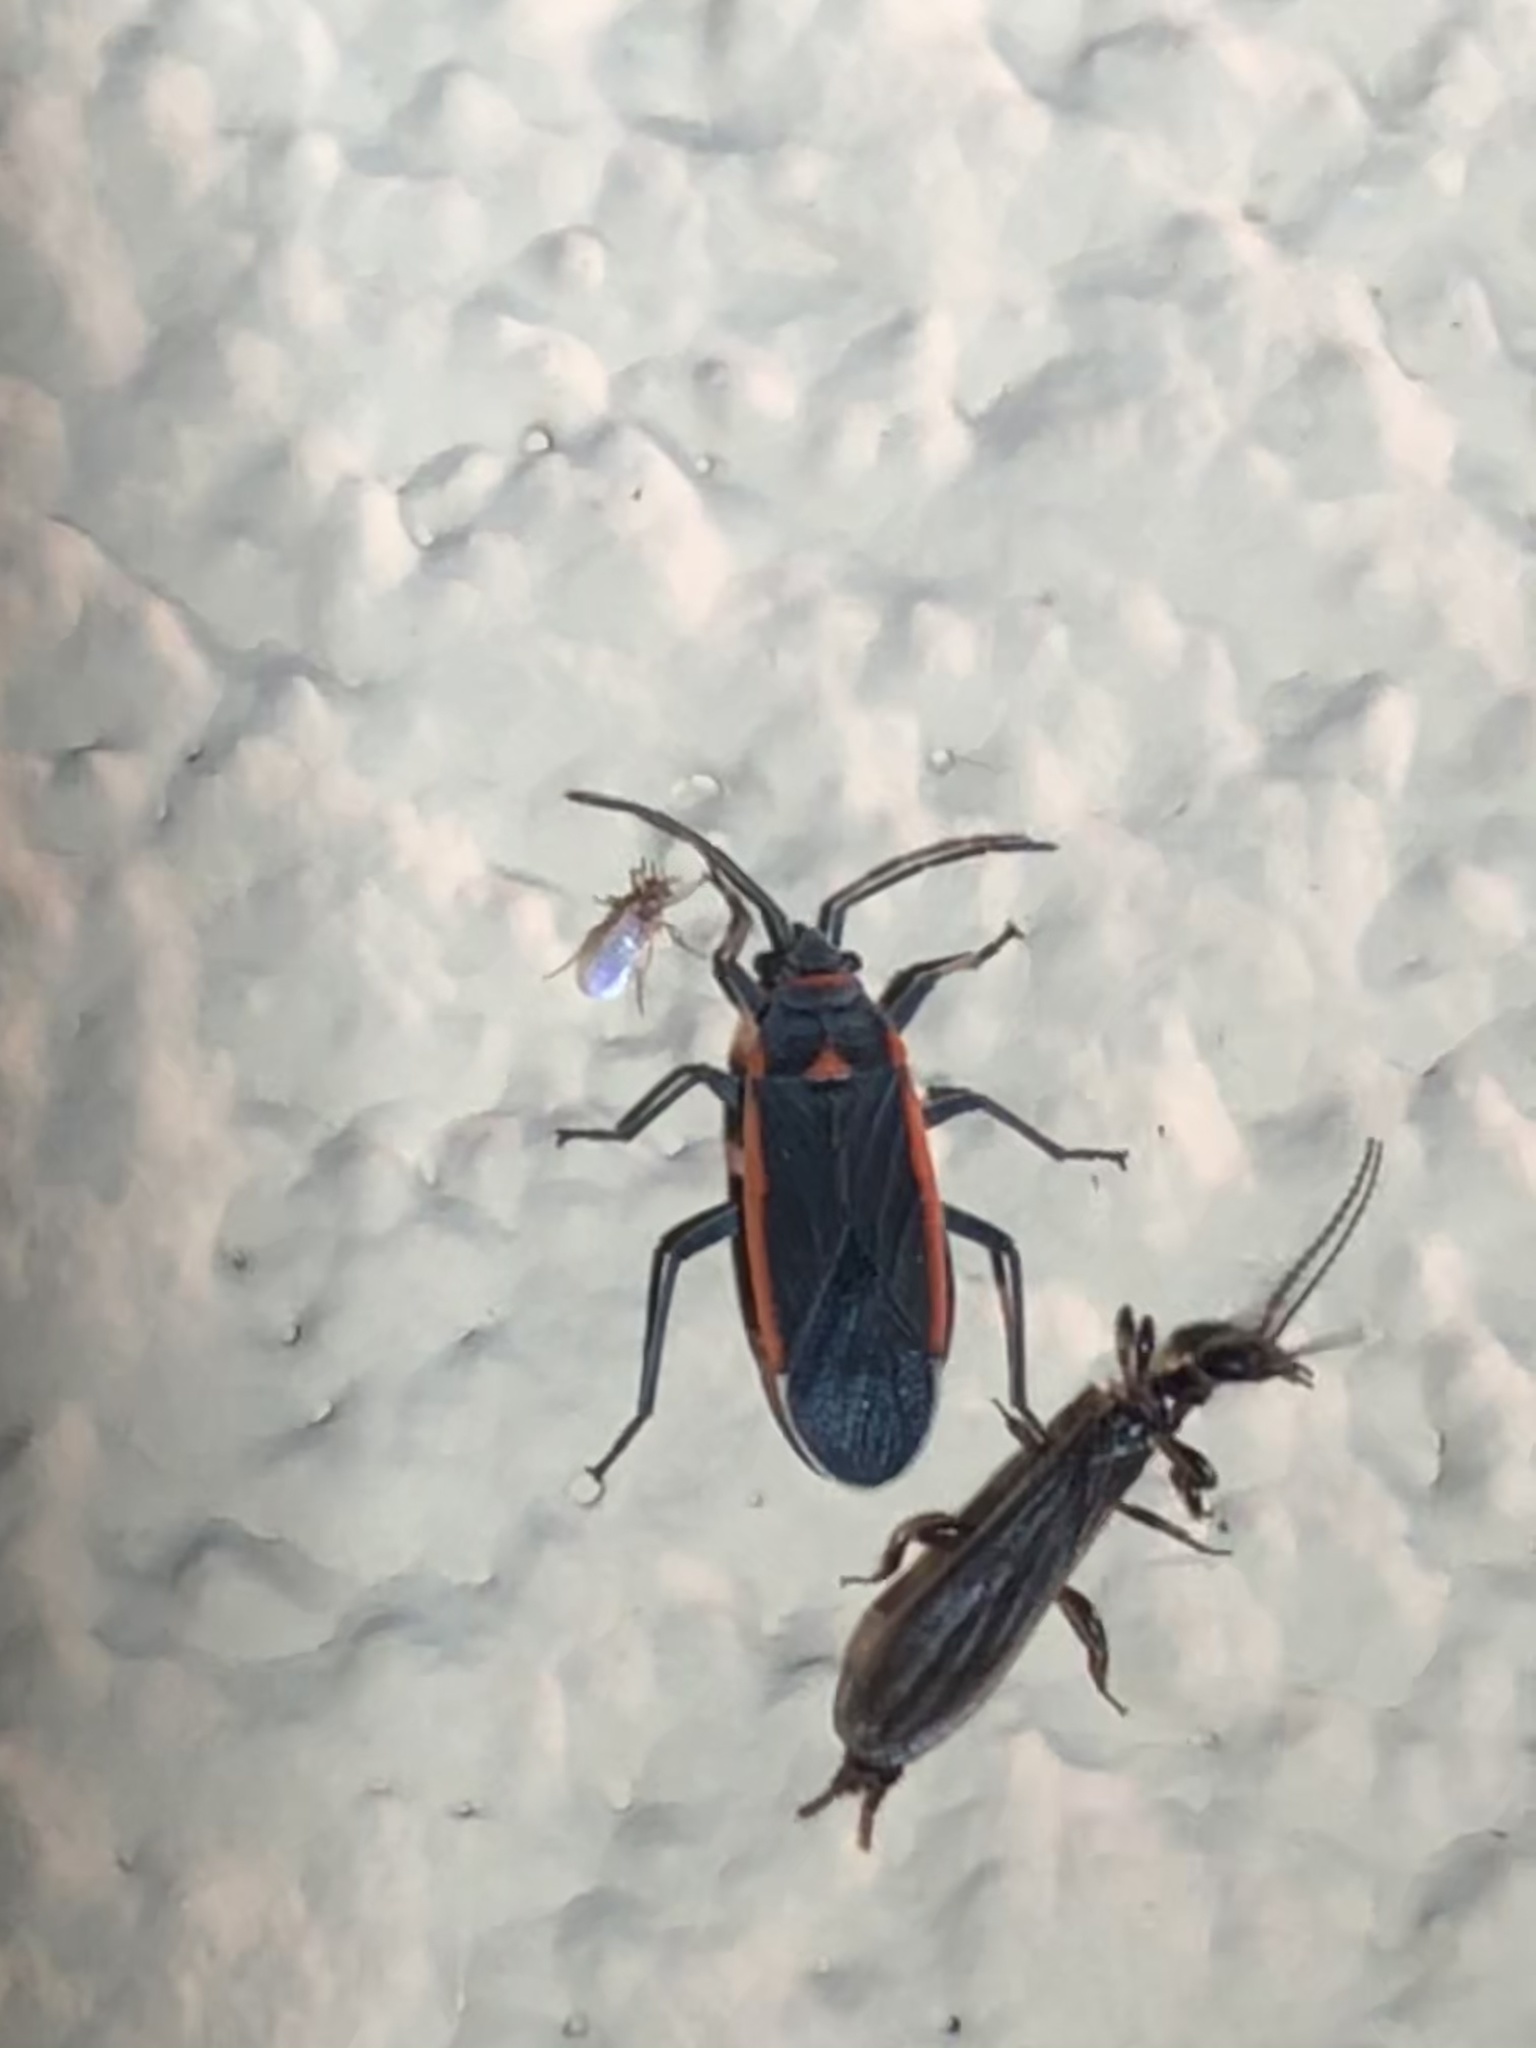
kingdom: Animalia
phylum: Arthropoda
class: Insecta
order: Hemiptera
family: Lygaeidae
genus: Melacoryphus
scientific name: Melacoryphus lateralis
